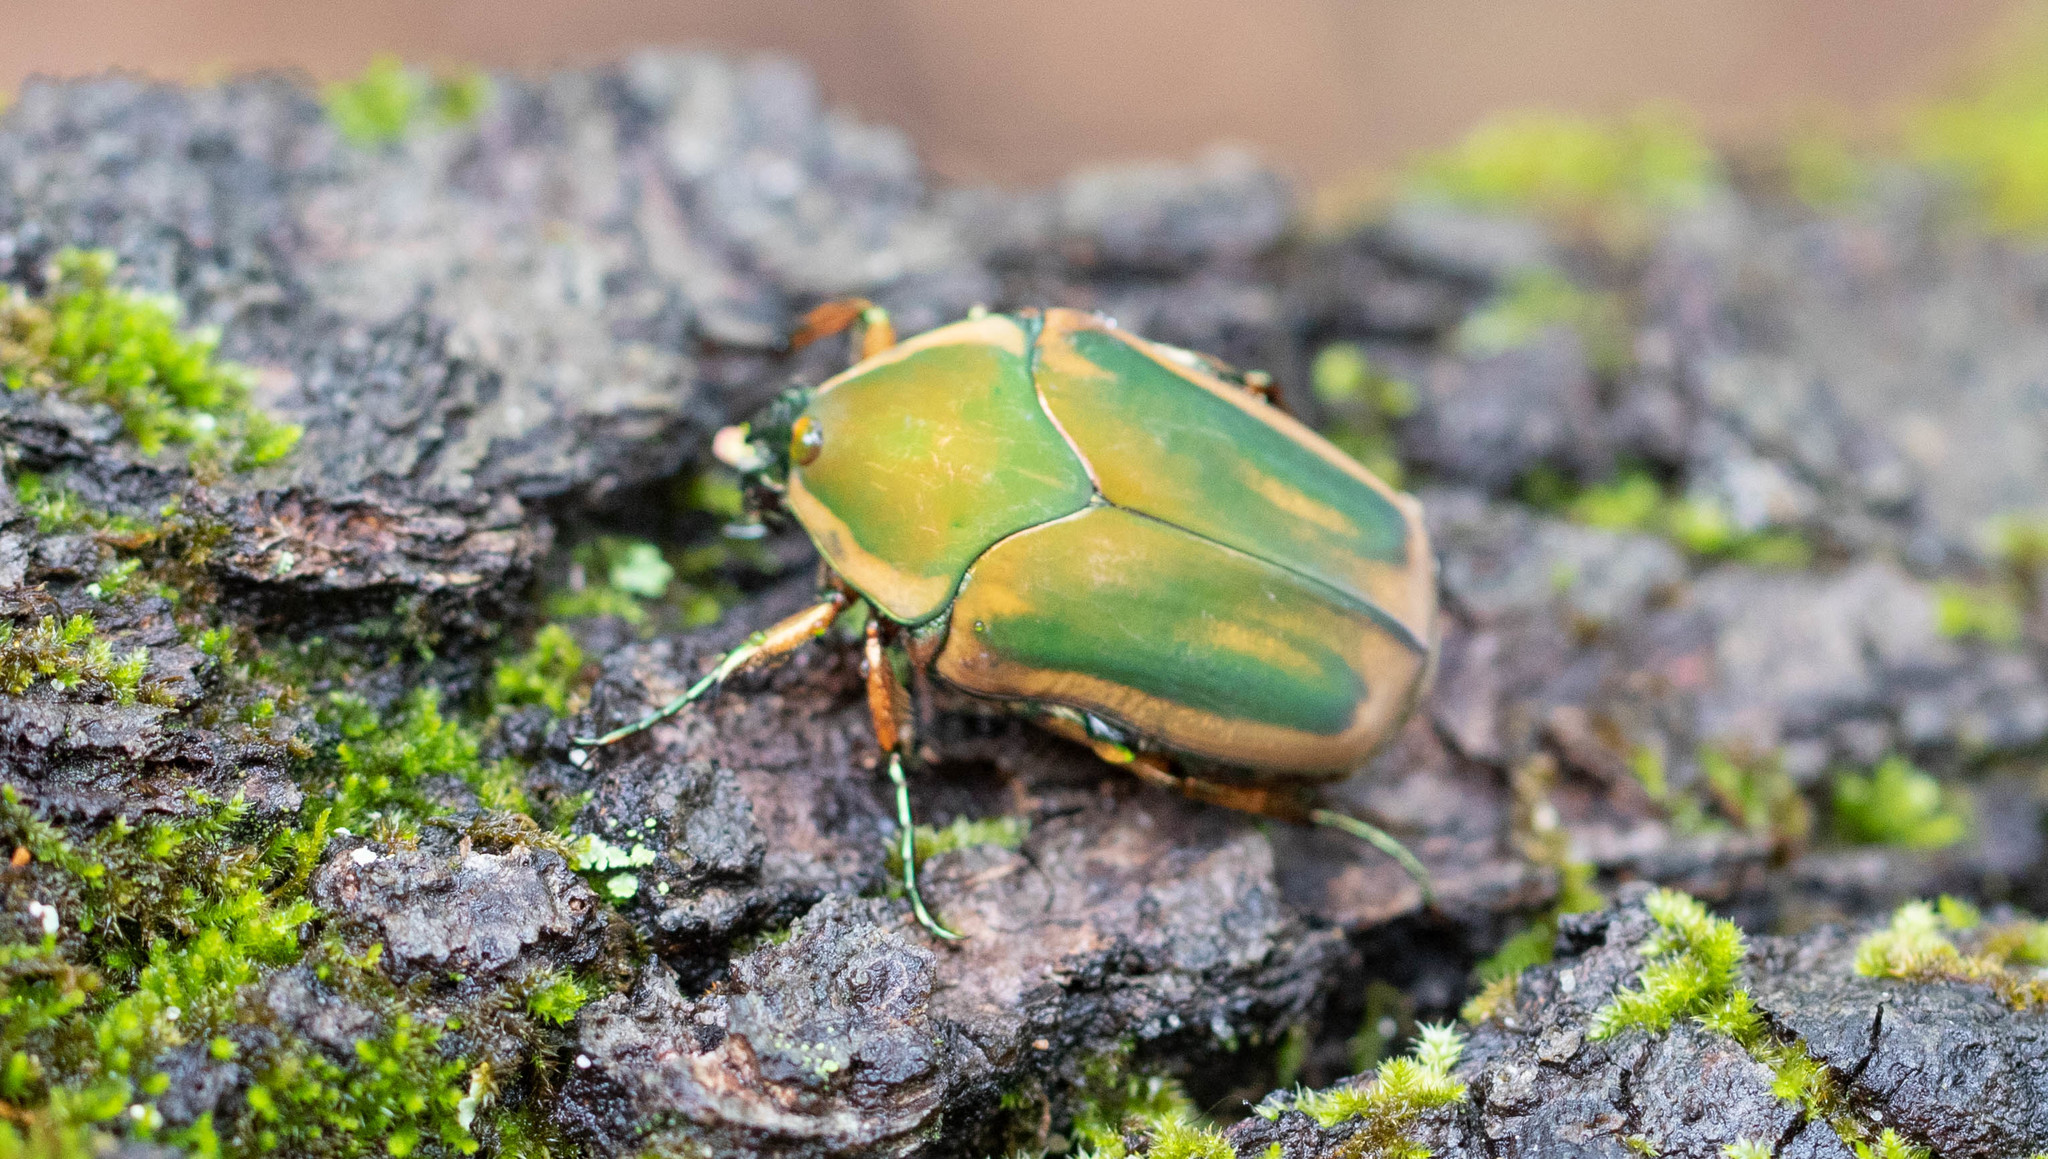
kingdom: Animalia
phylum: Arthropoda
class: Insecta
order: Coleoptera
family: Scarabaeidae
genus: Cotinis
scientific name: Cotinis nitida
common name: Common green june beetle
